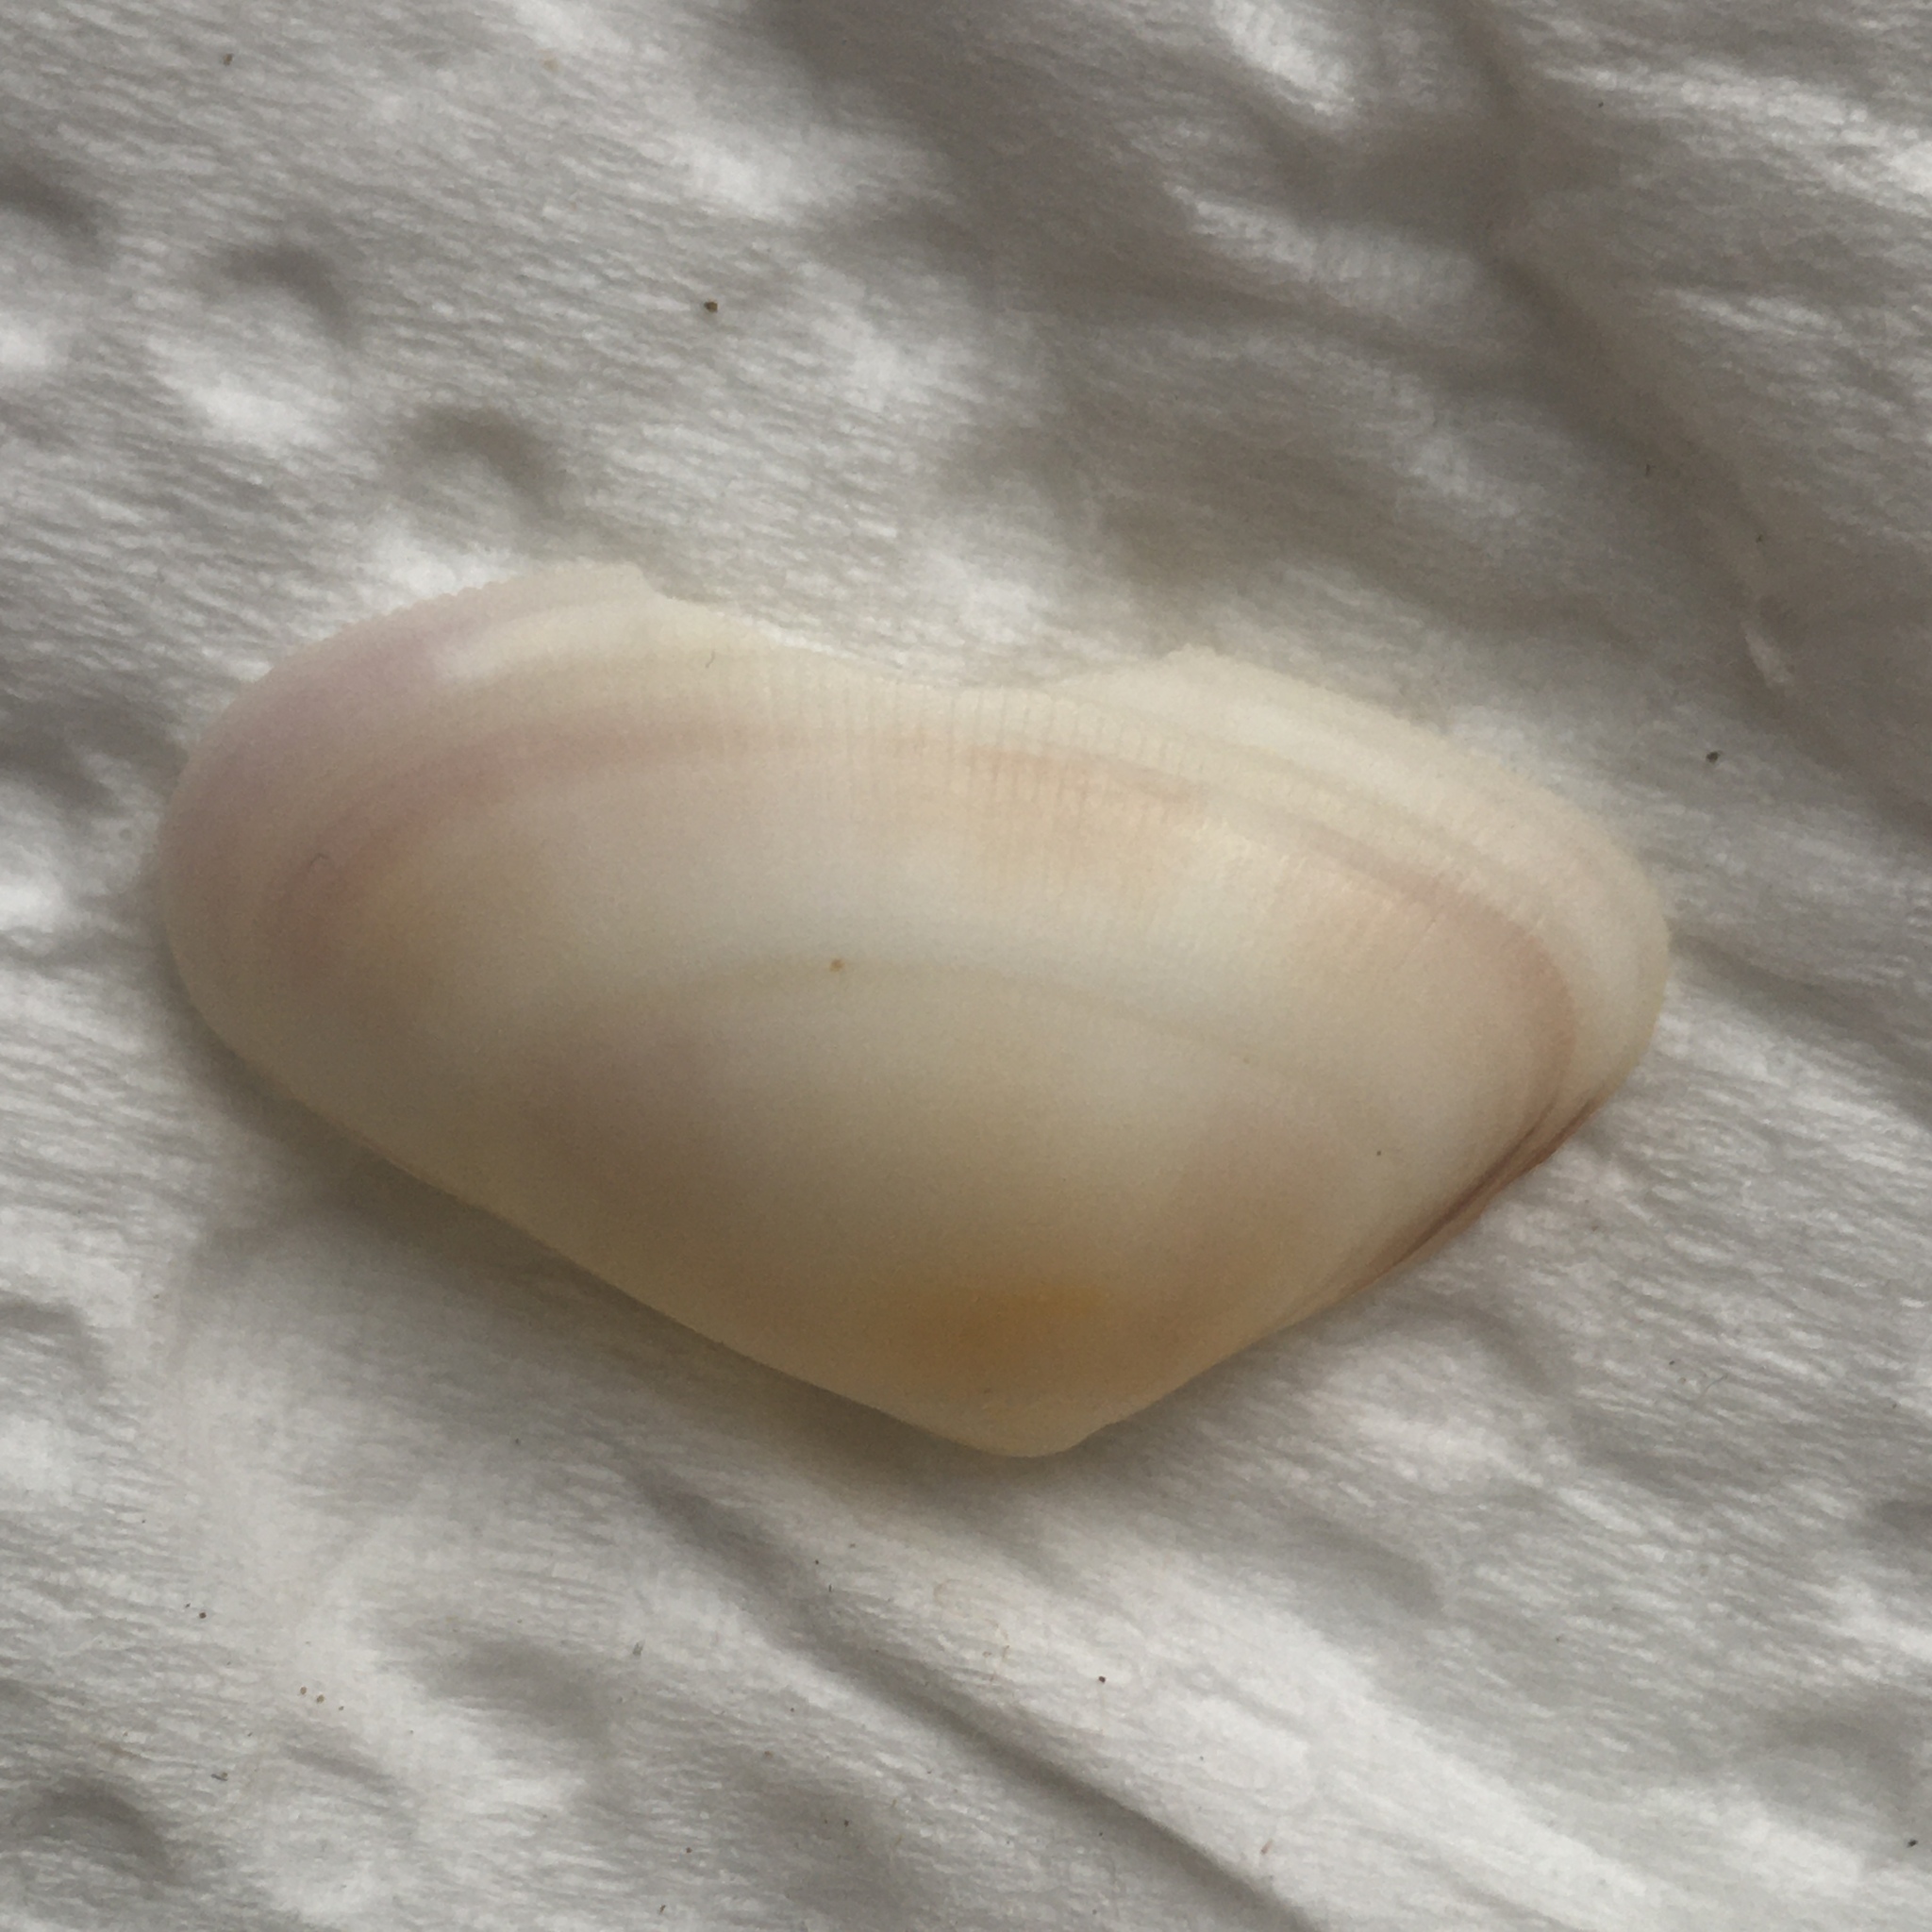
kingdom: Animalia
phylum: Mollusca
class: Bivalvia
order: Cardiida
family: Donacidae
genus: Donax
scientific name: Donax vittatus
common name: Banded wedge-shell
